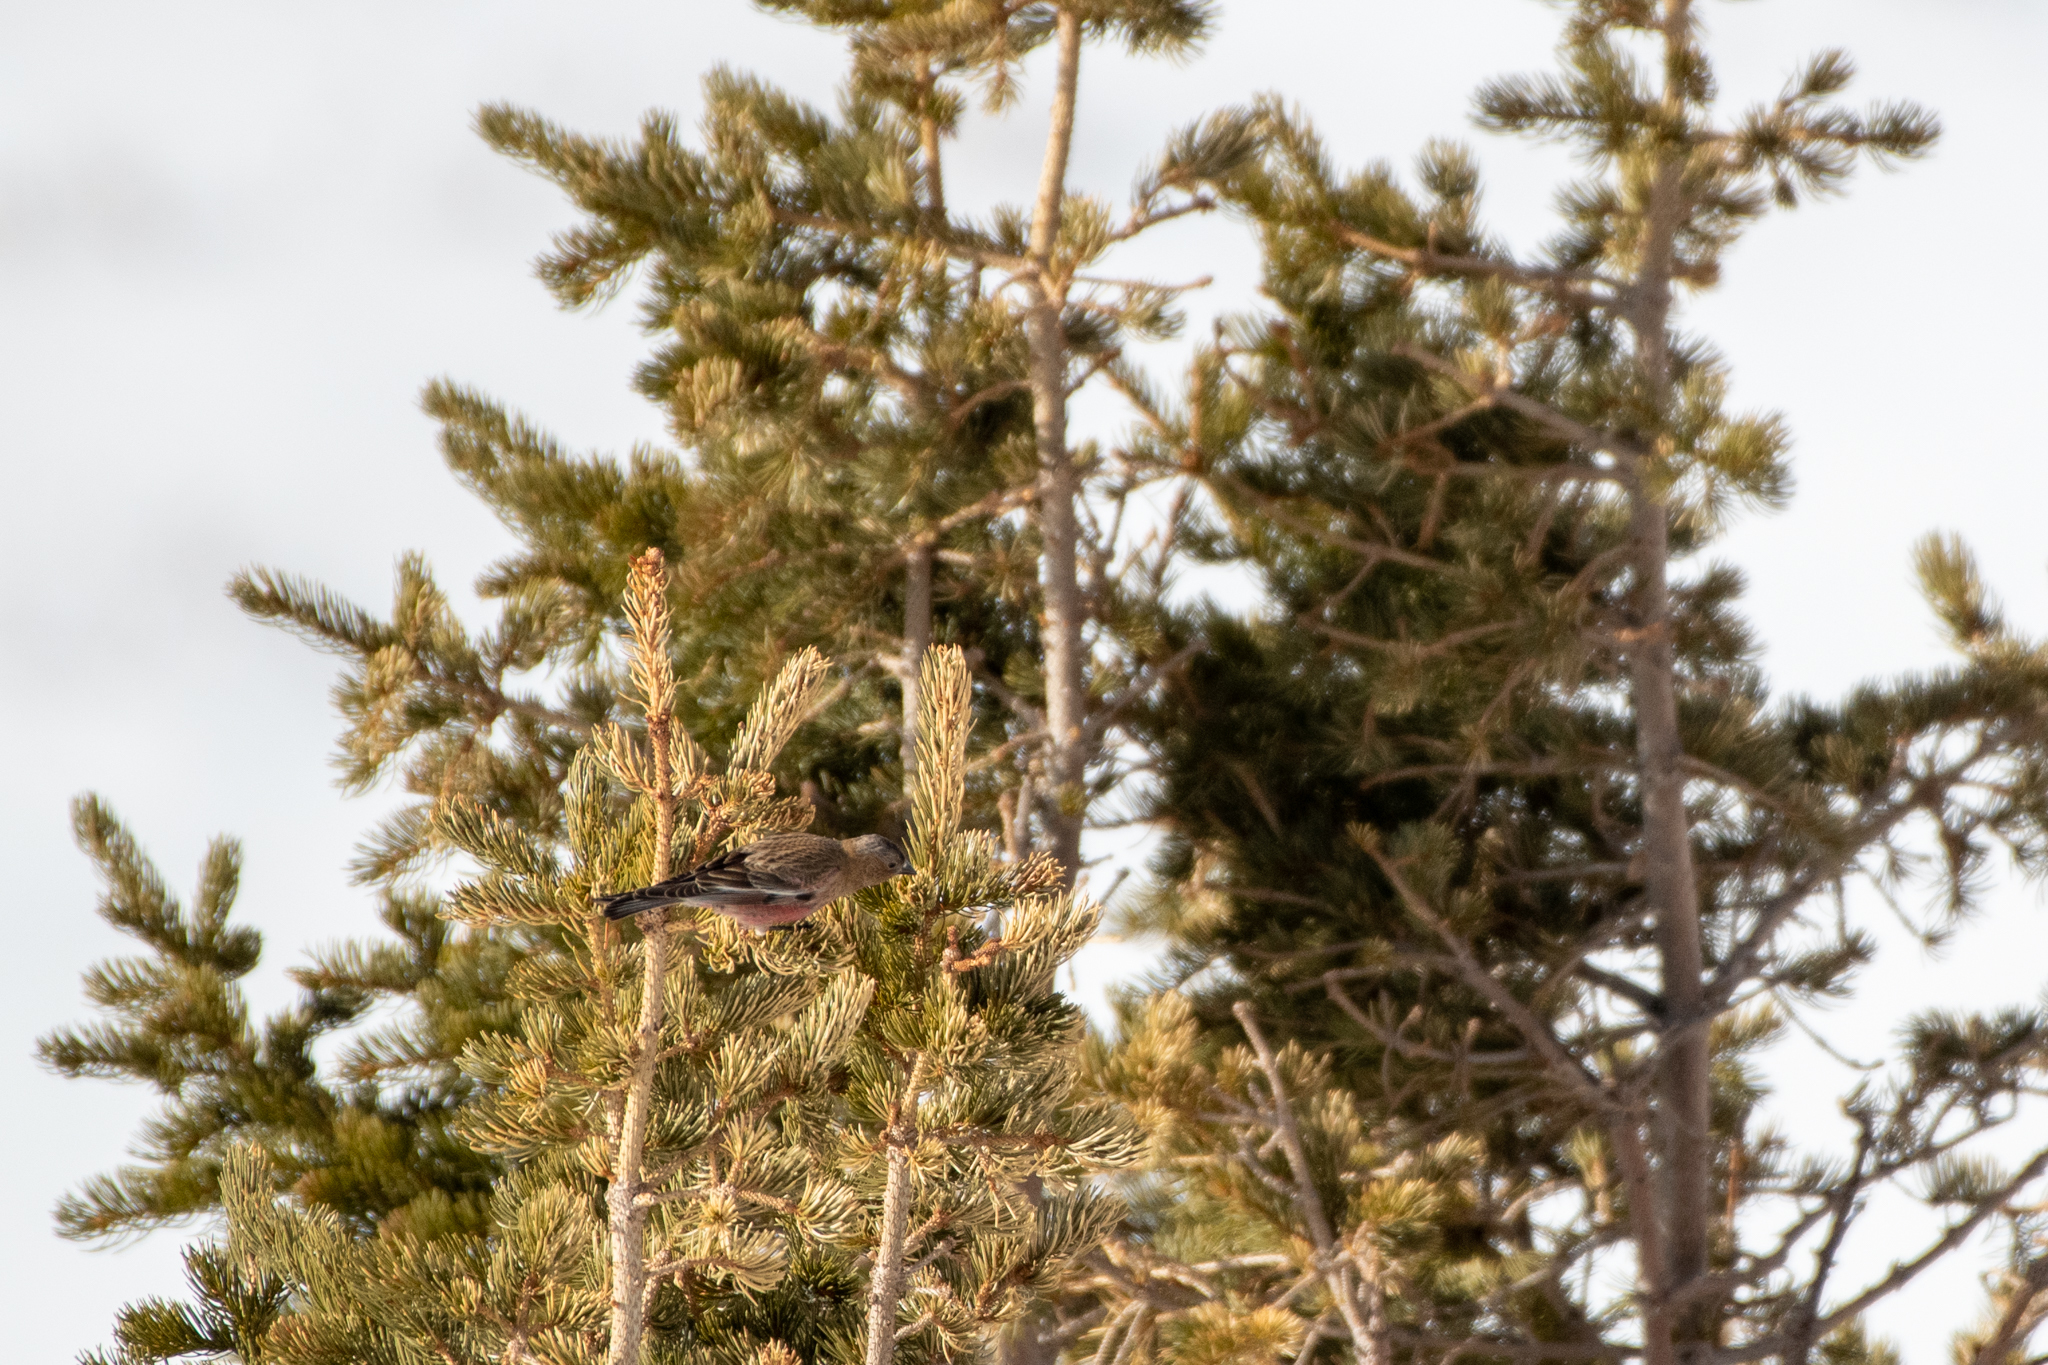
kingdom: Animalia
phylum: Chordata
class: Aves
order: Passeriformes
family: Fringillidae
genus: Leucosticte
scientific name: Leucosticte australis
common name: Brown-capped rosy-finch
